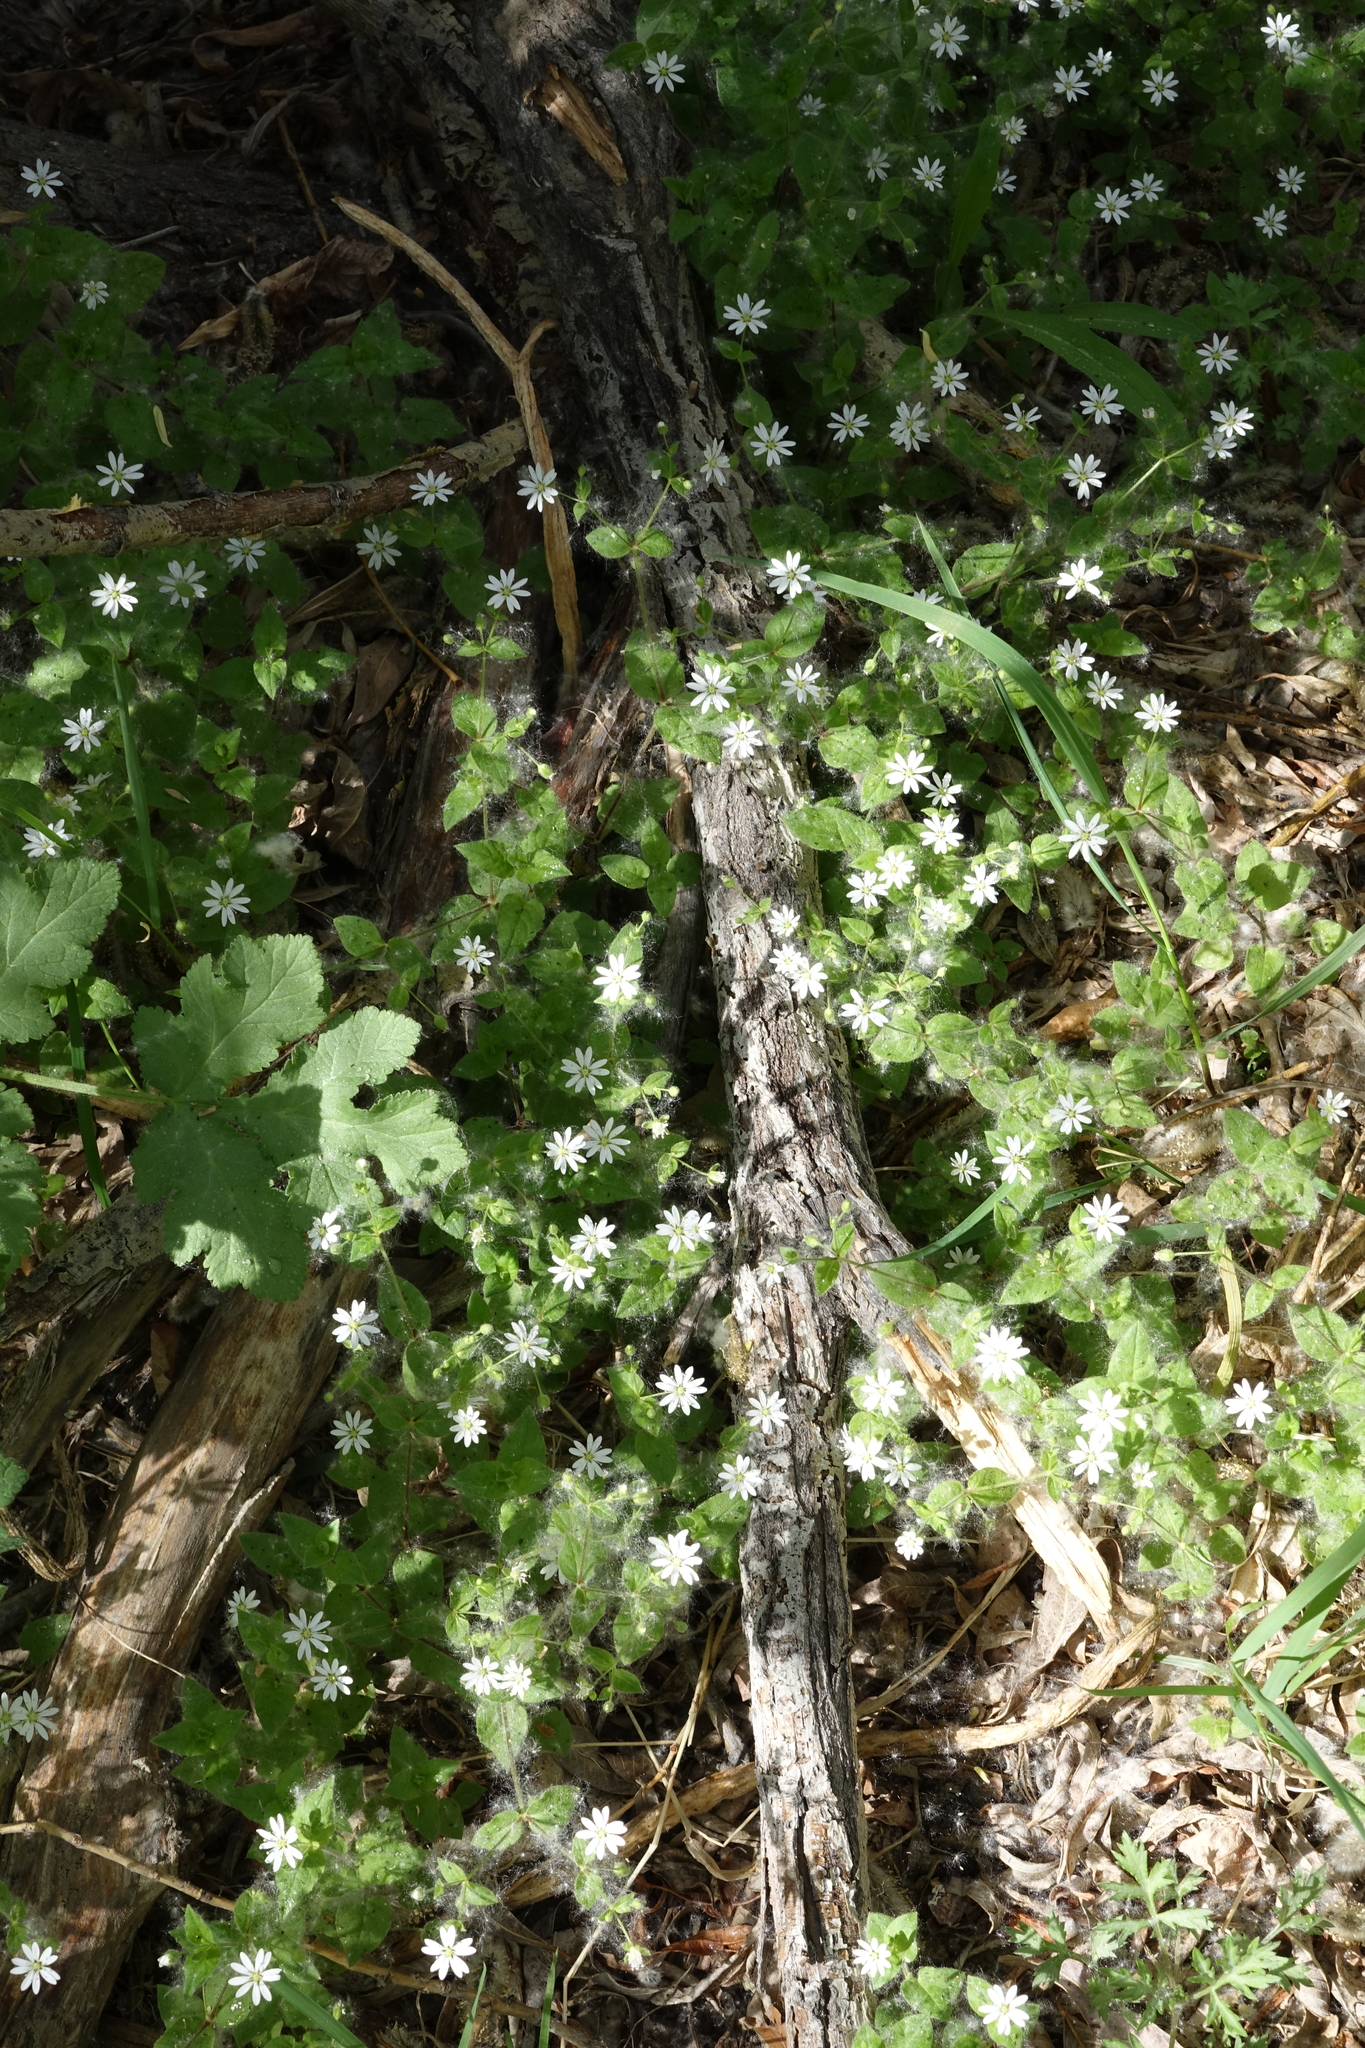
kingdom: Plantae
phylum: Tracheophyta
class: Magnoliopsida
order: Caryophyllales
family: Caryophyllaceae
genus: Stellaria
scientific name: Stellaria bungeana
